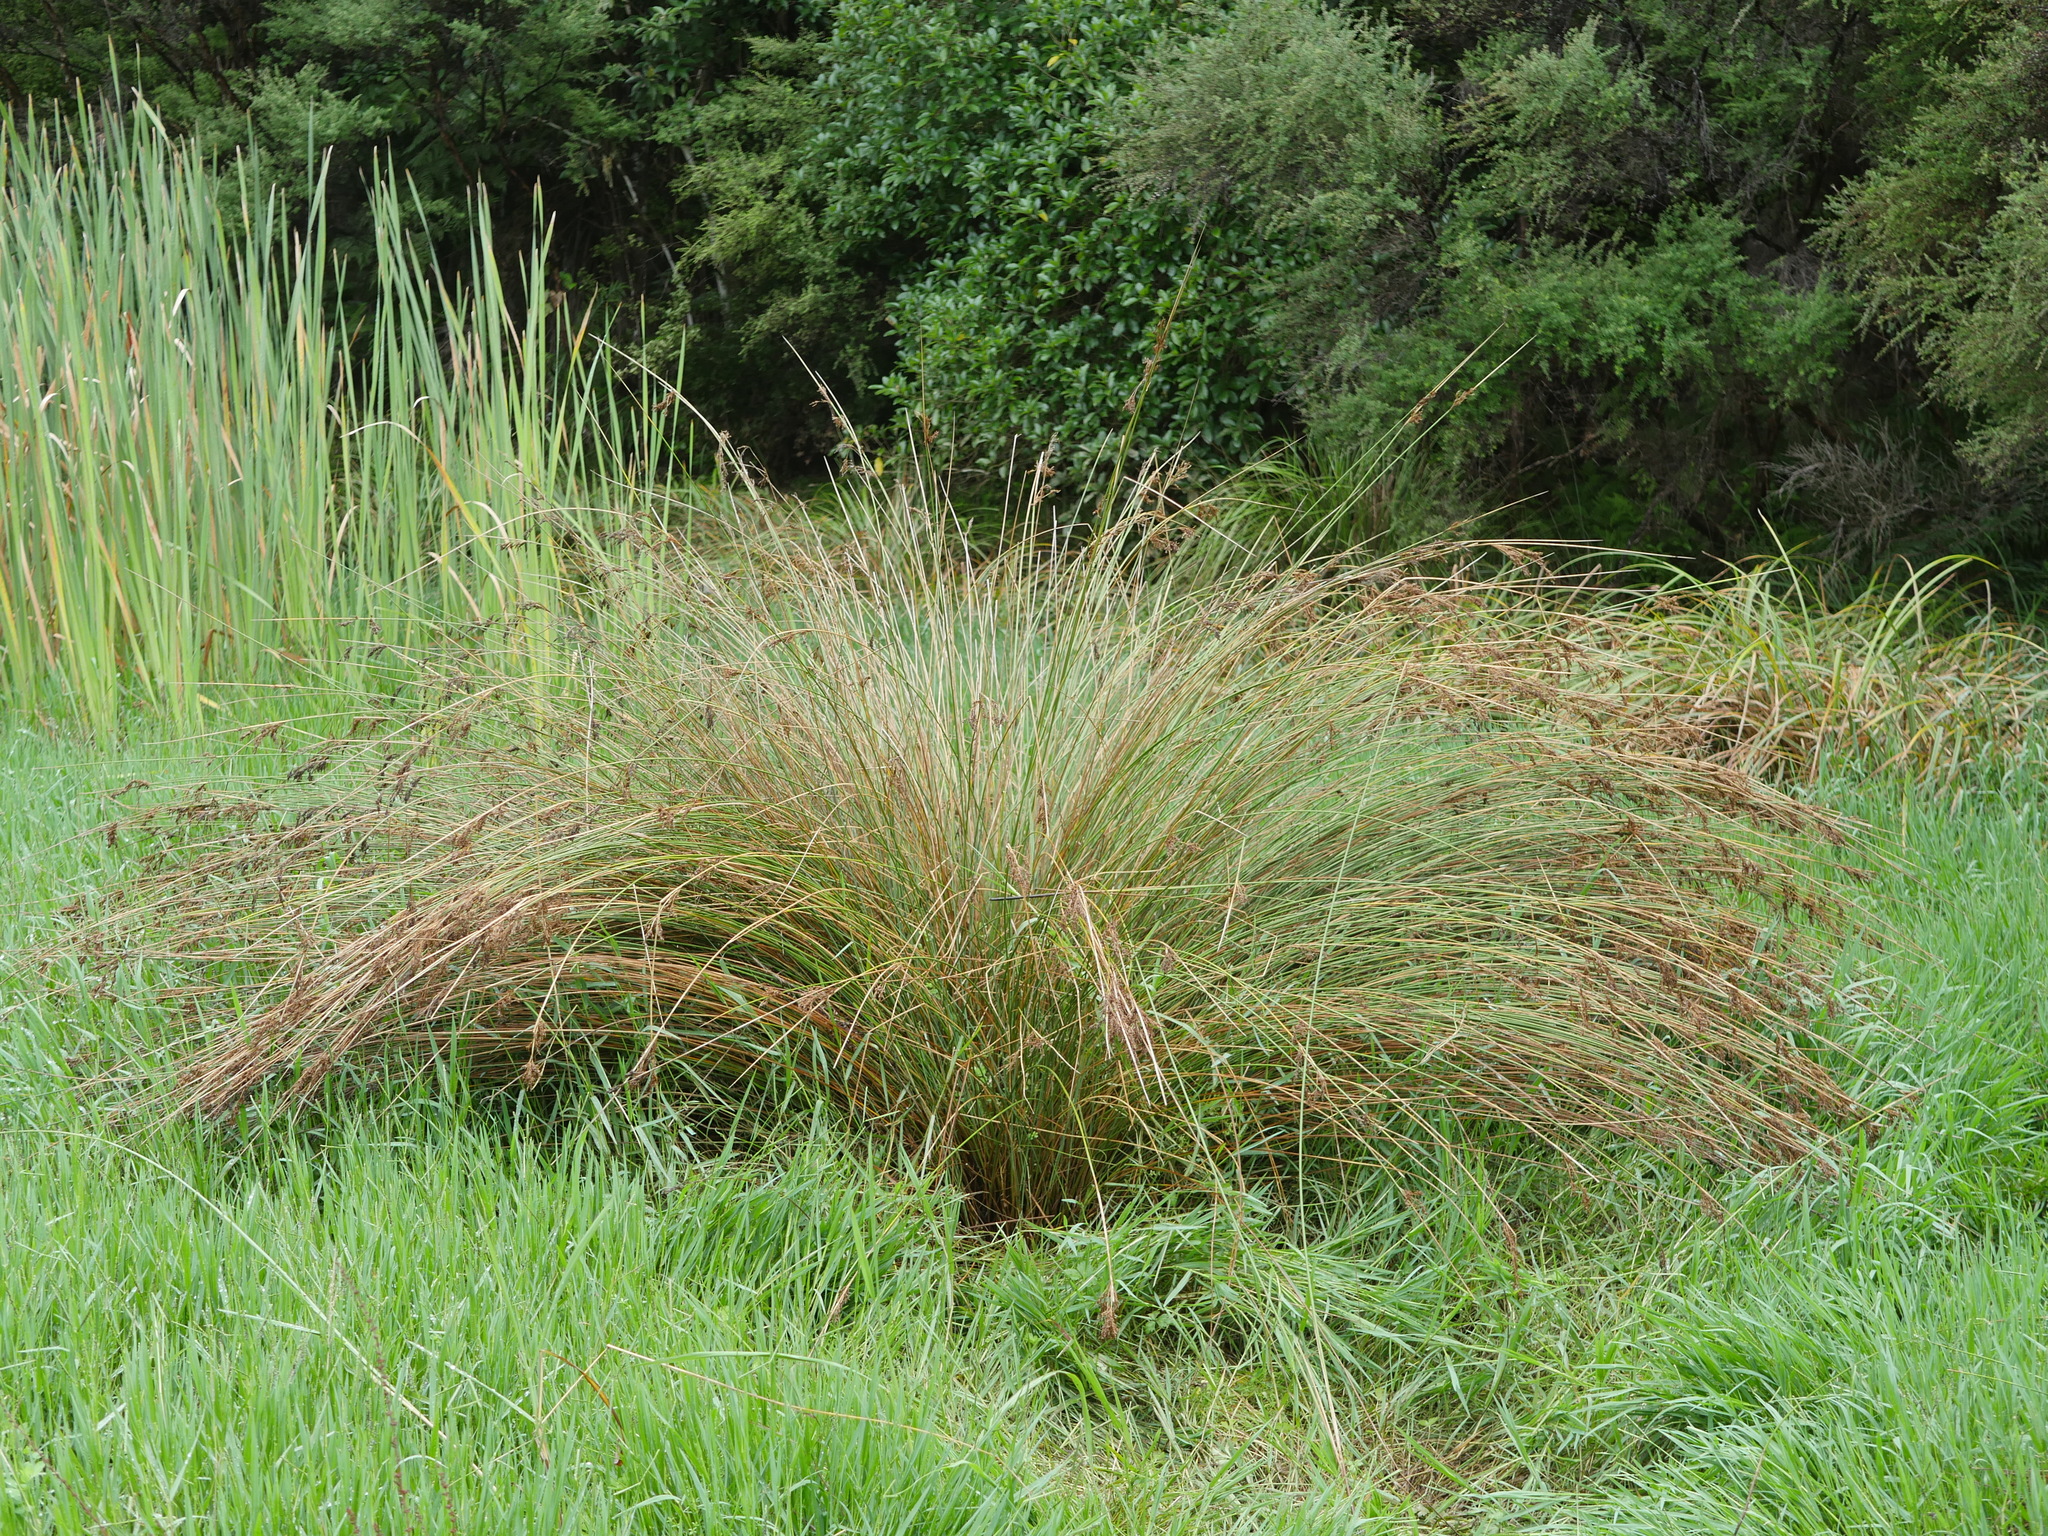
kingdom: Plantae
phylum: Tracheophyta
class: Liliopsida
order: Poales
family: Juncaceae
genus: Juncus
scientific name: Juncus sarophorus
